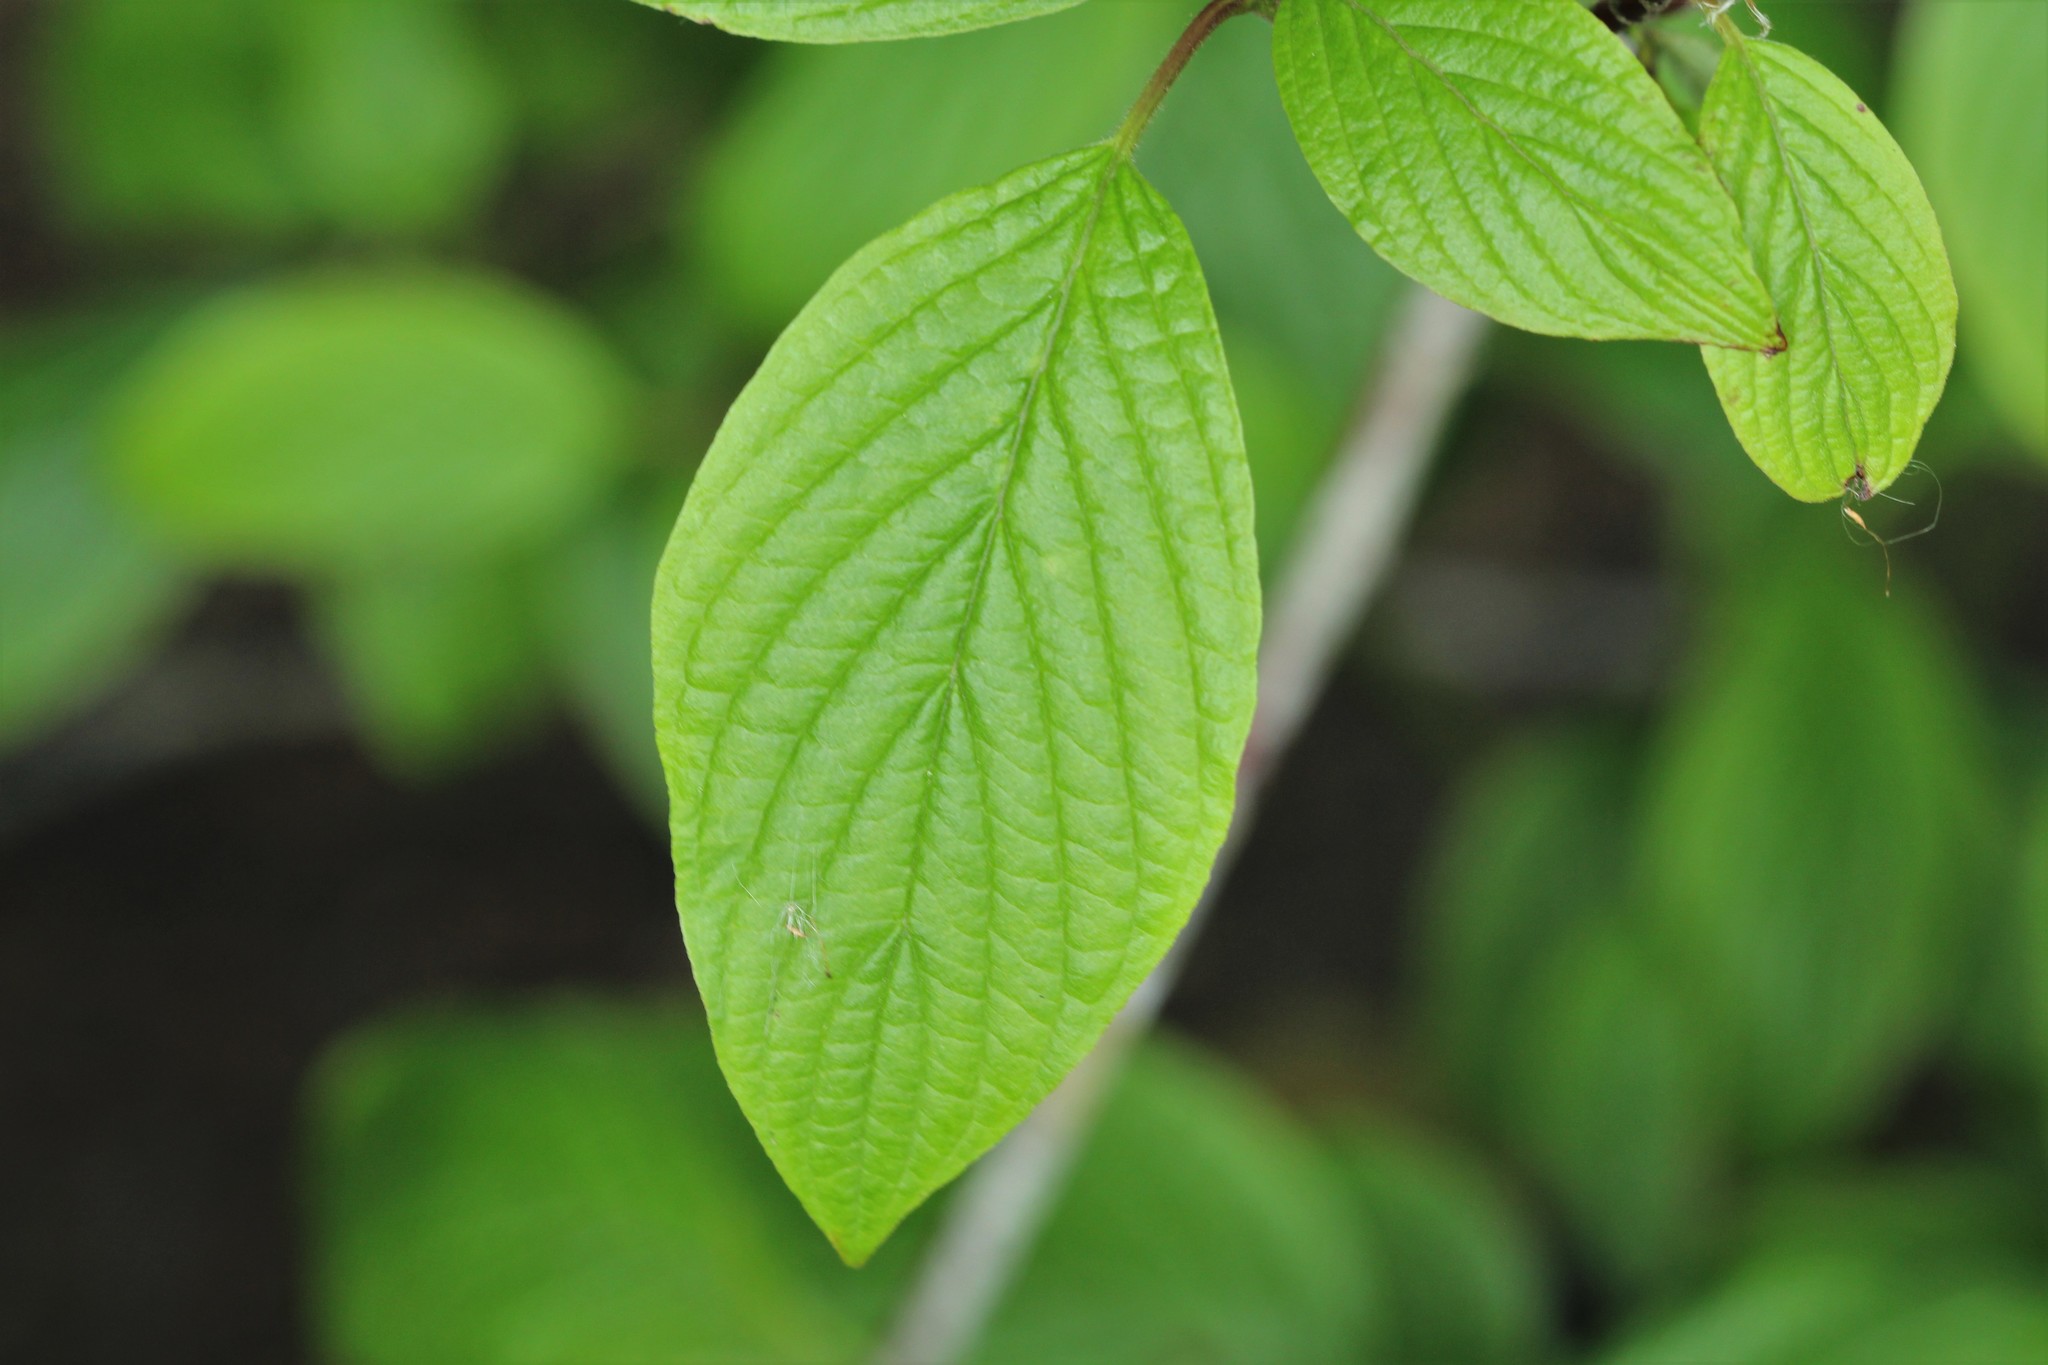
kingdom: Plantae
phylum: Tracheophyta
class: Magnoliopsida
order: Cornales
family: Cornaceae
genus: Cornus
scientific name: Cornus sericea
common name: Red-osier dogwood
